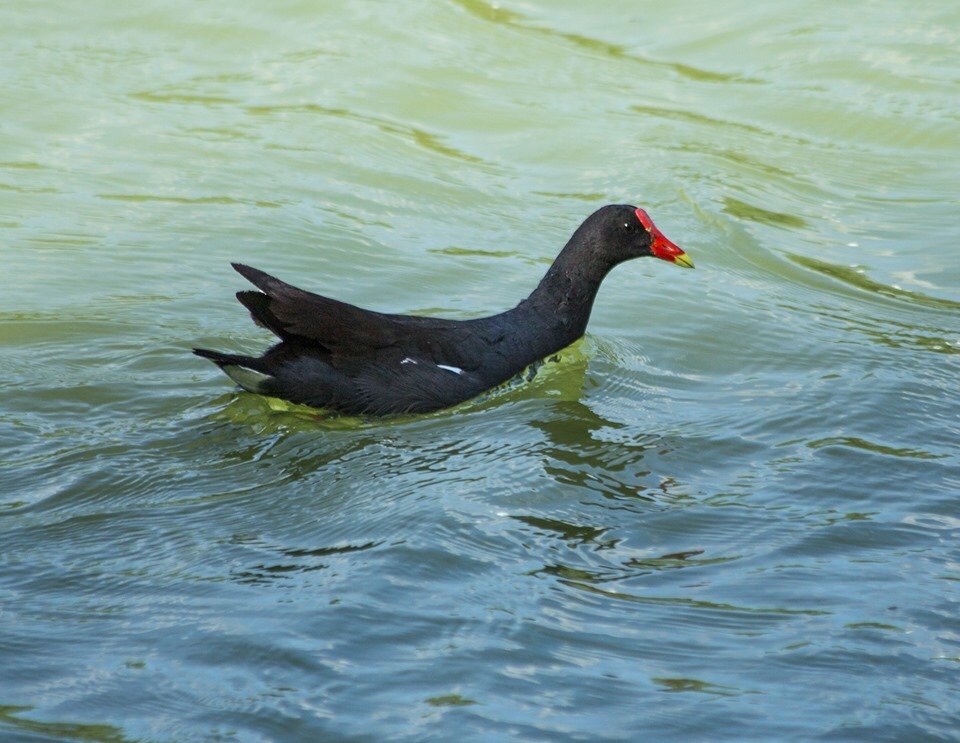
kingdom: Animalia
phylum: Chordata
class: Aves
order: Gruiformes
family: Rallidae
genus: Gallinula
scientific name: Gallinula chloropus
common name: Common moorhen
